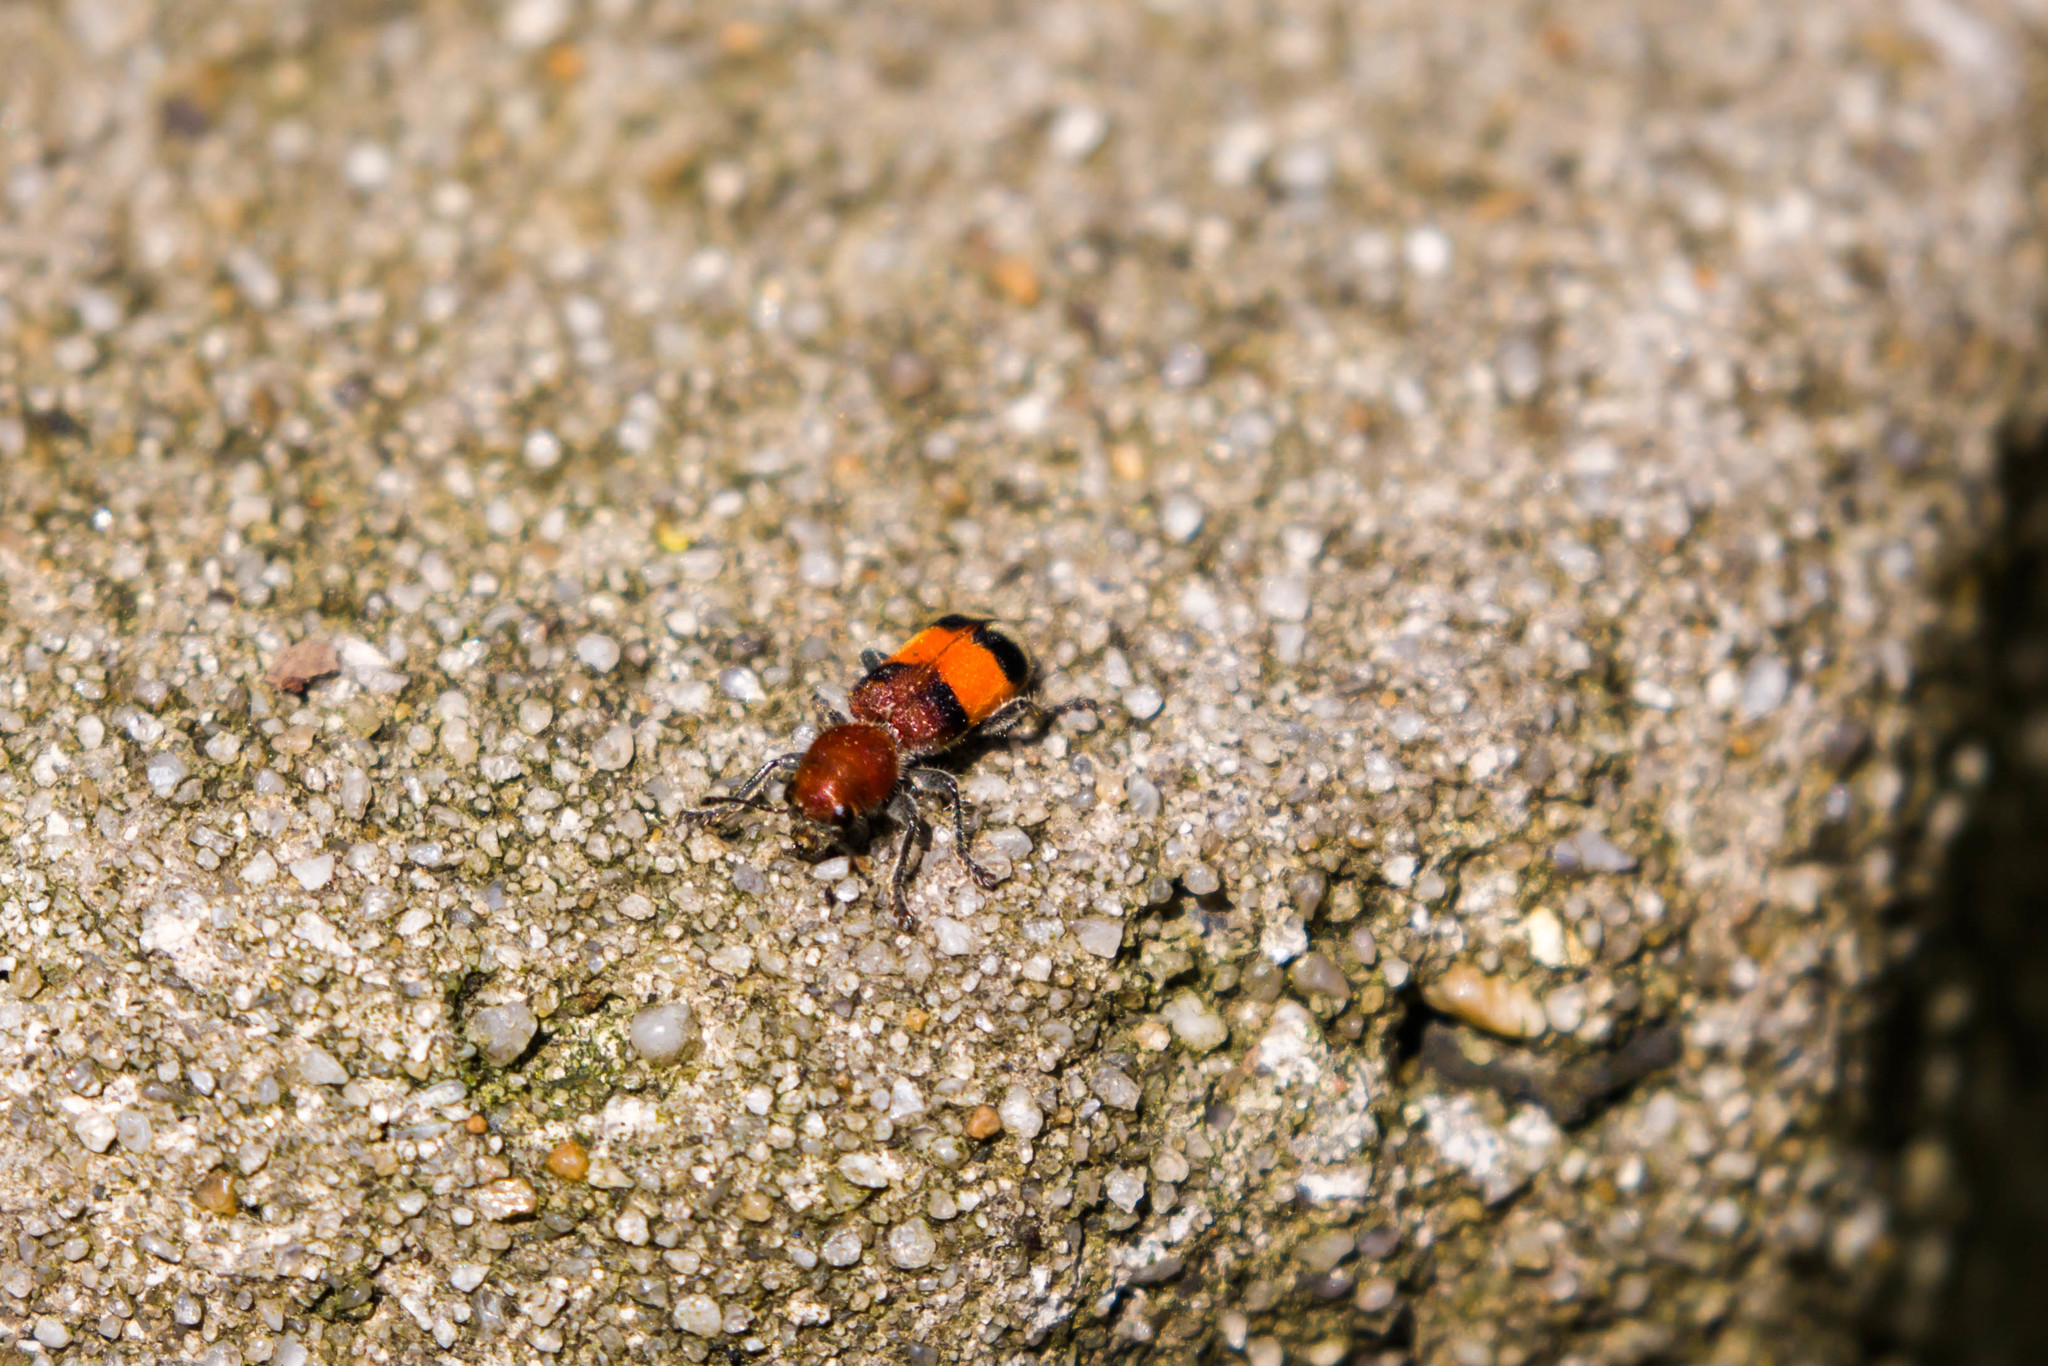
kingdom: Animalia
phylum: Arthropoda
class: Insecta
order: Coleoptera
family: Cleridae
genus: Enoclerus
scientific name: Enoclerus ichneumoneus
